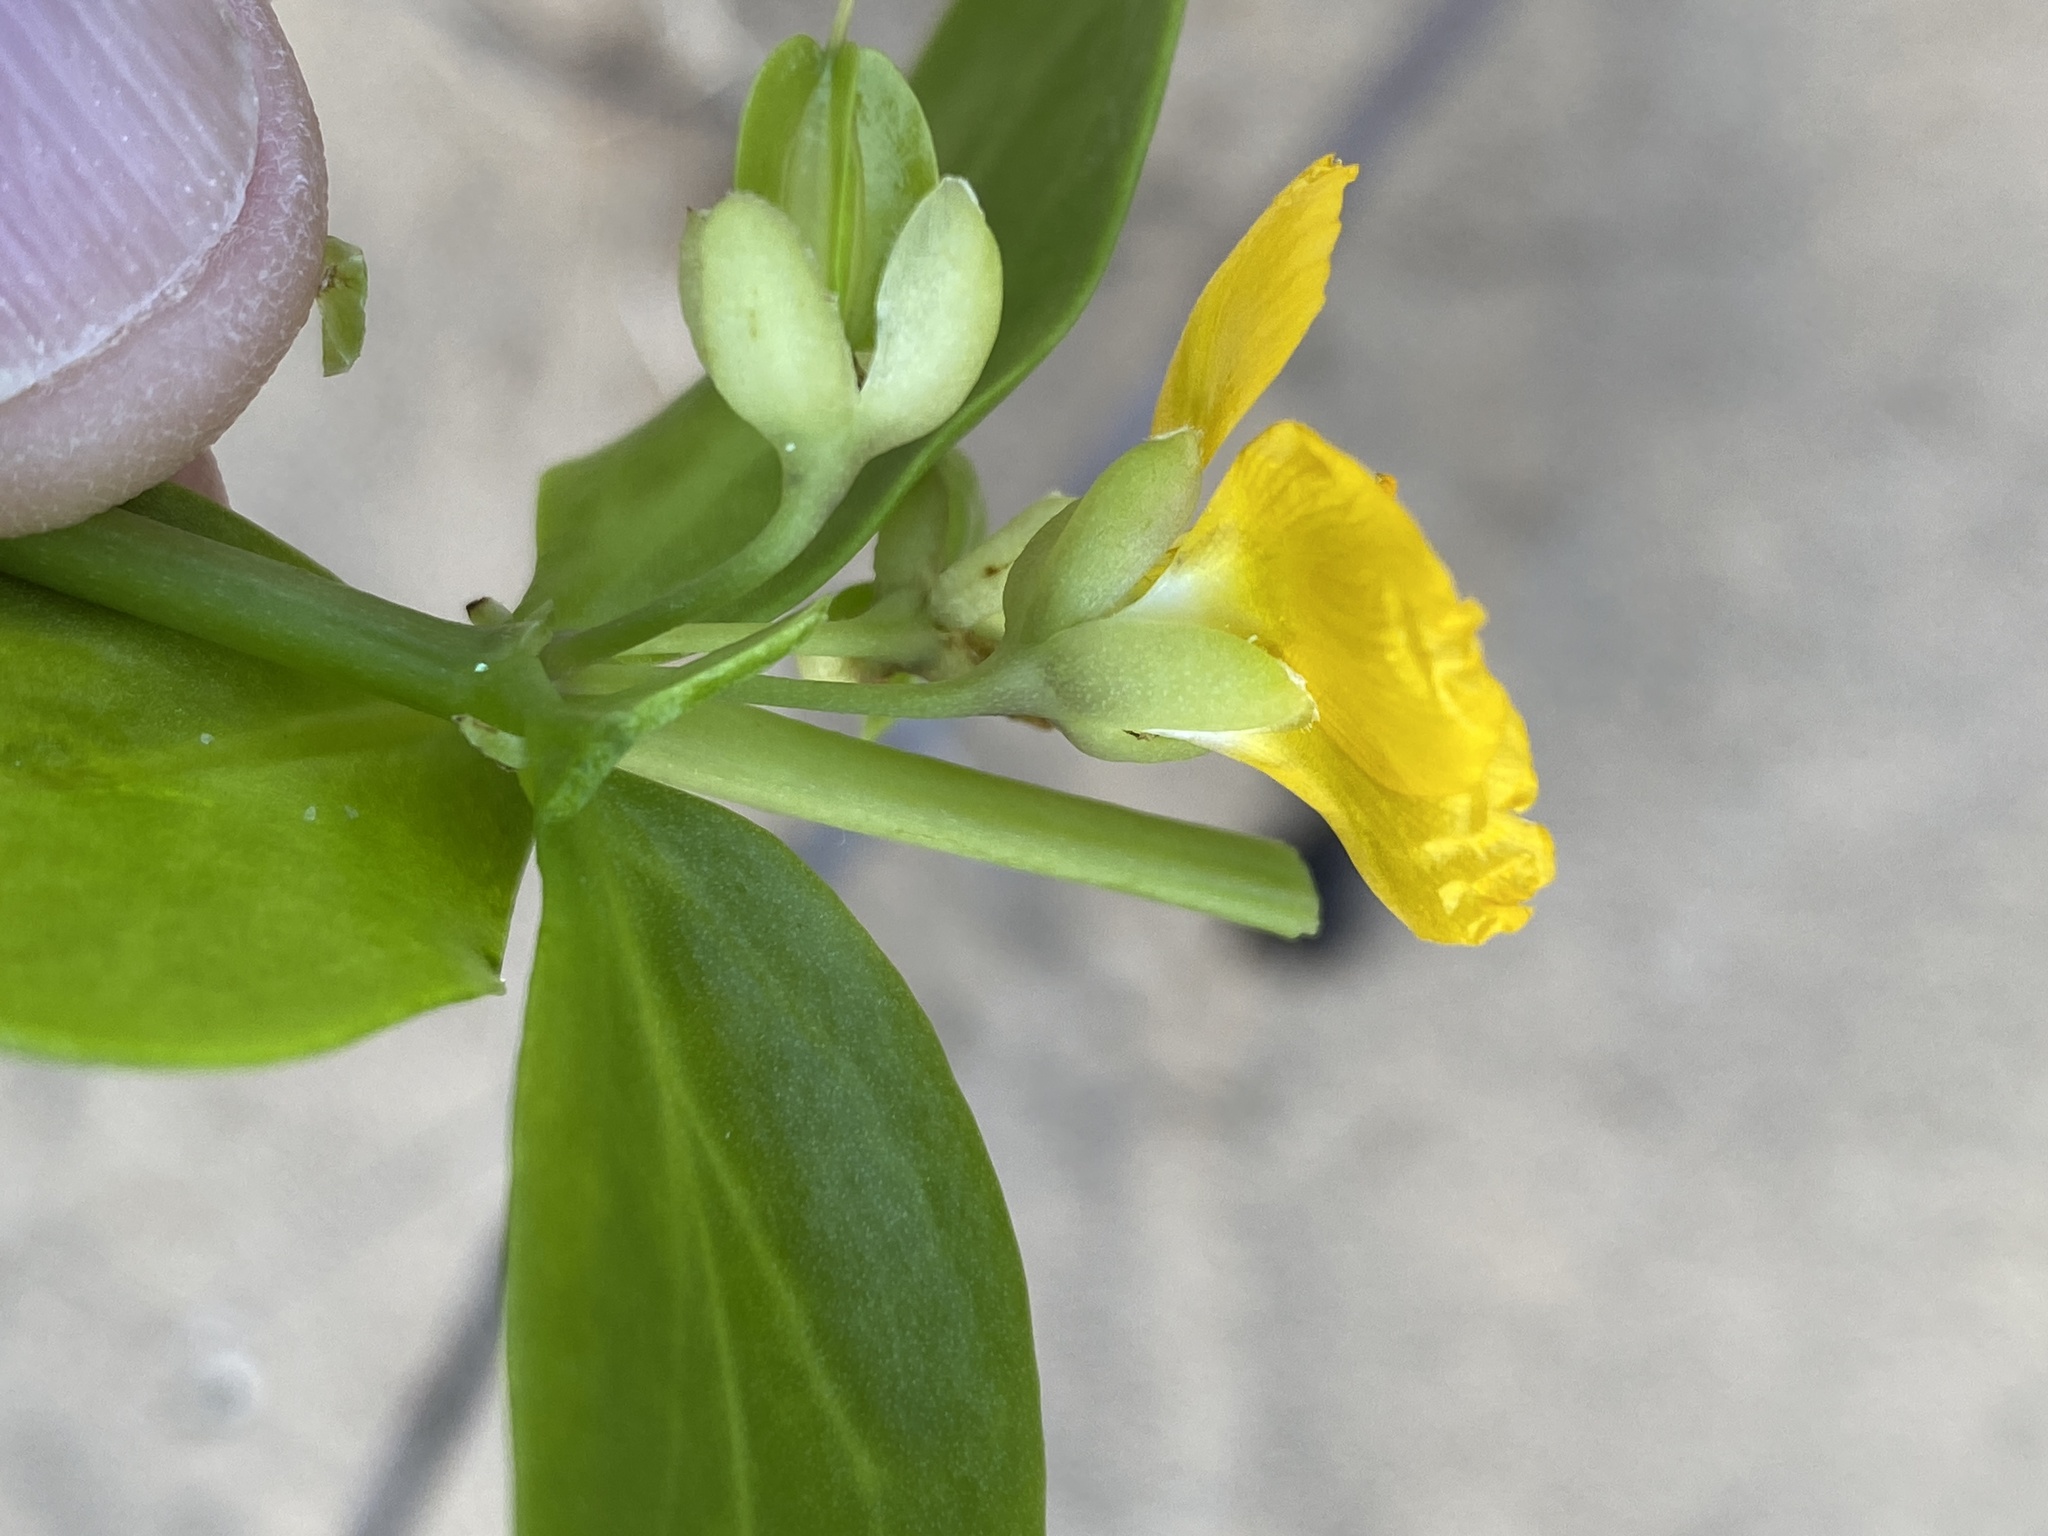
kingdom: Plantae
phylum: Tracheophyta
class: Magnoliopsida
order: Zygophyllales
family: Zygophyllaceae
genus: Roepera
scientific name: Roepera morgsana
